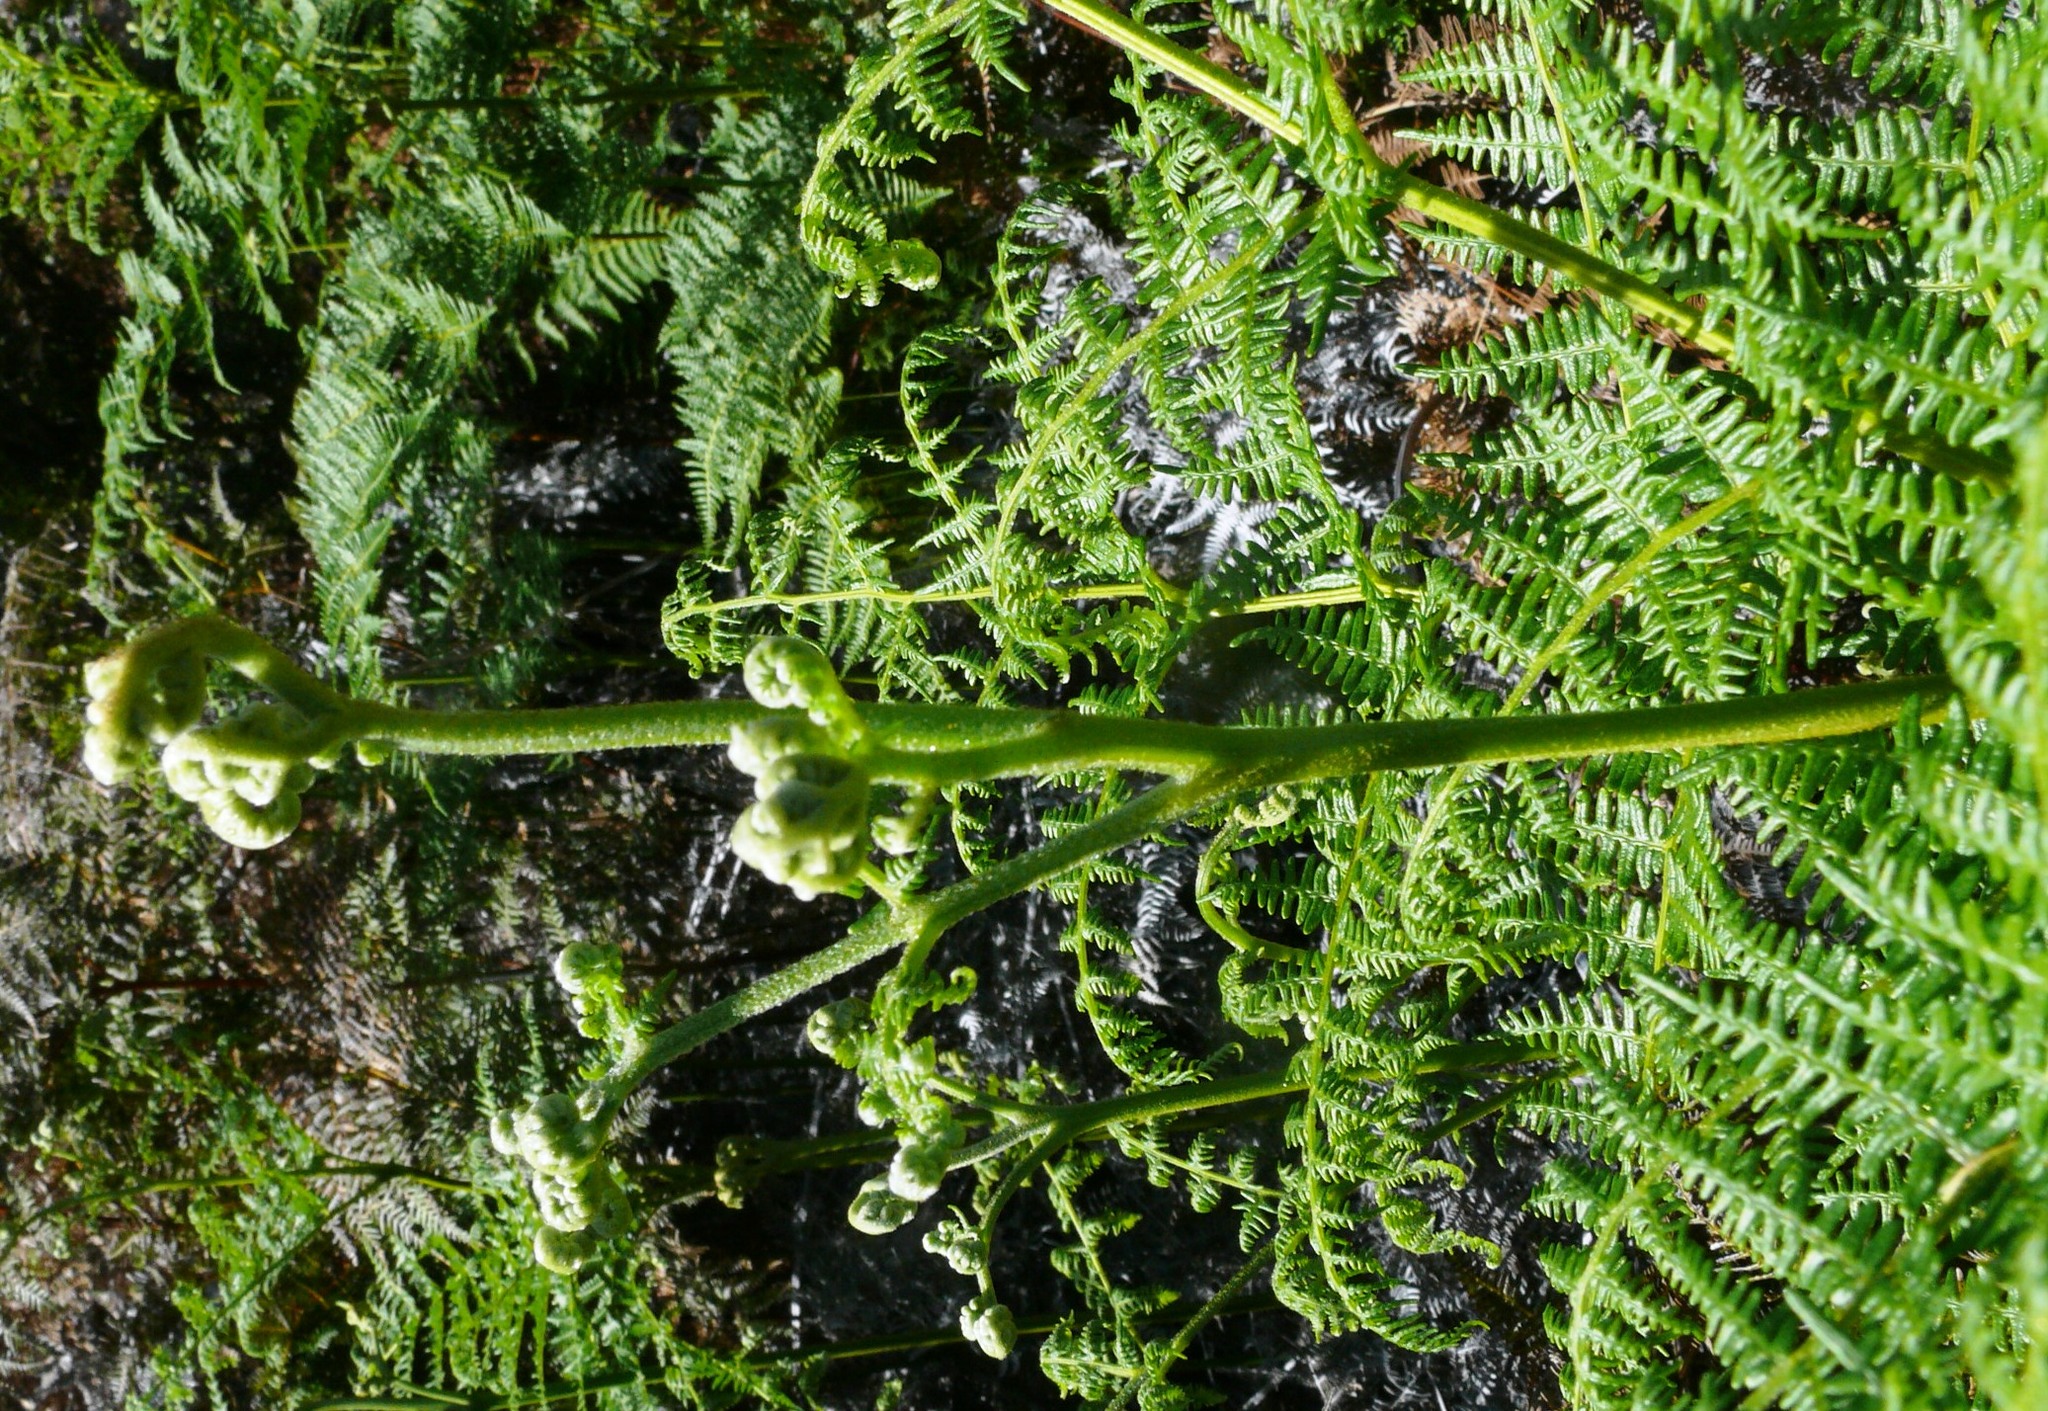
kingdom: Plantae
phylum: Tracheophyta
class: Polypodiopsida
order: Polypodiales
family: Dennstaedtiaceae
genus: Pteridium
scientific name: Pteridium aquilinum
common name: Bracken
